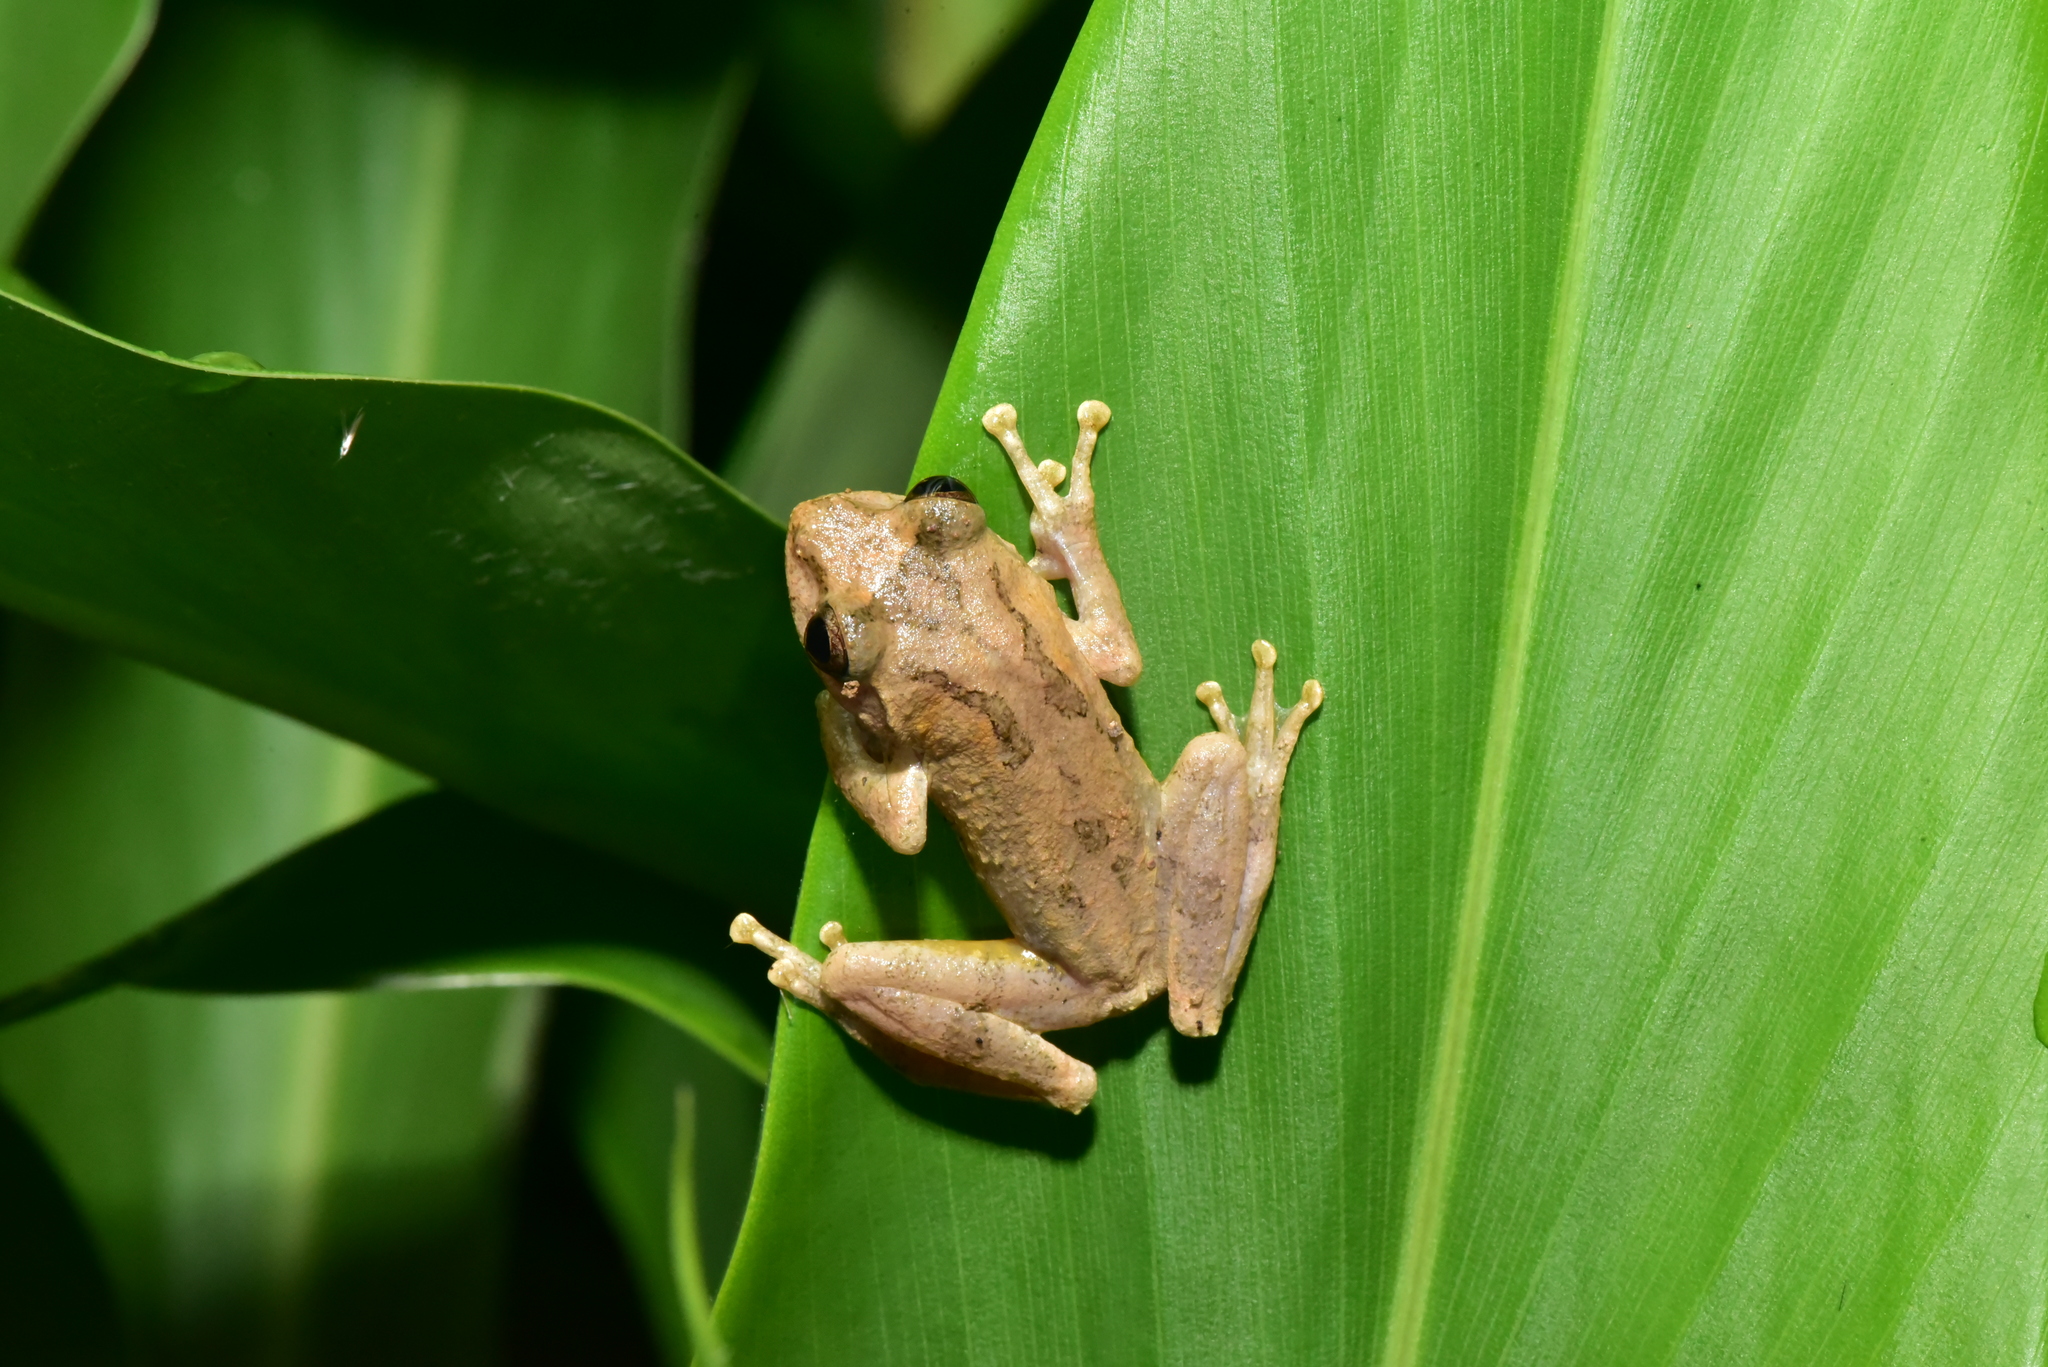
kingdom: Animalia
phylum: Chordata
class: Amphibia
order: Anura
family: Rhacophoridae
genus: Kurixalus
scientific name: Kurixalus idiootocus
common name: Temple treefrog
